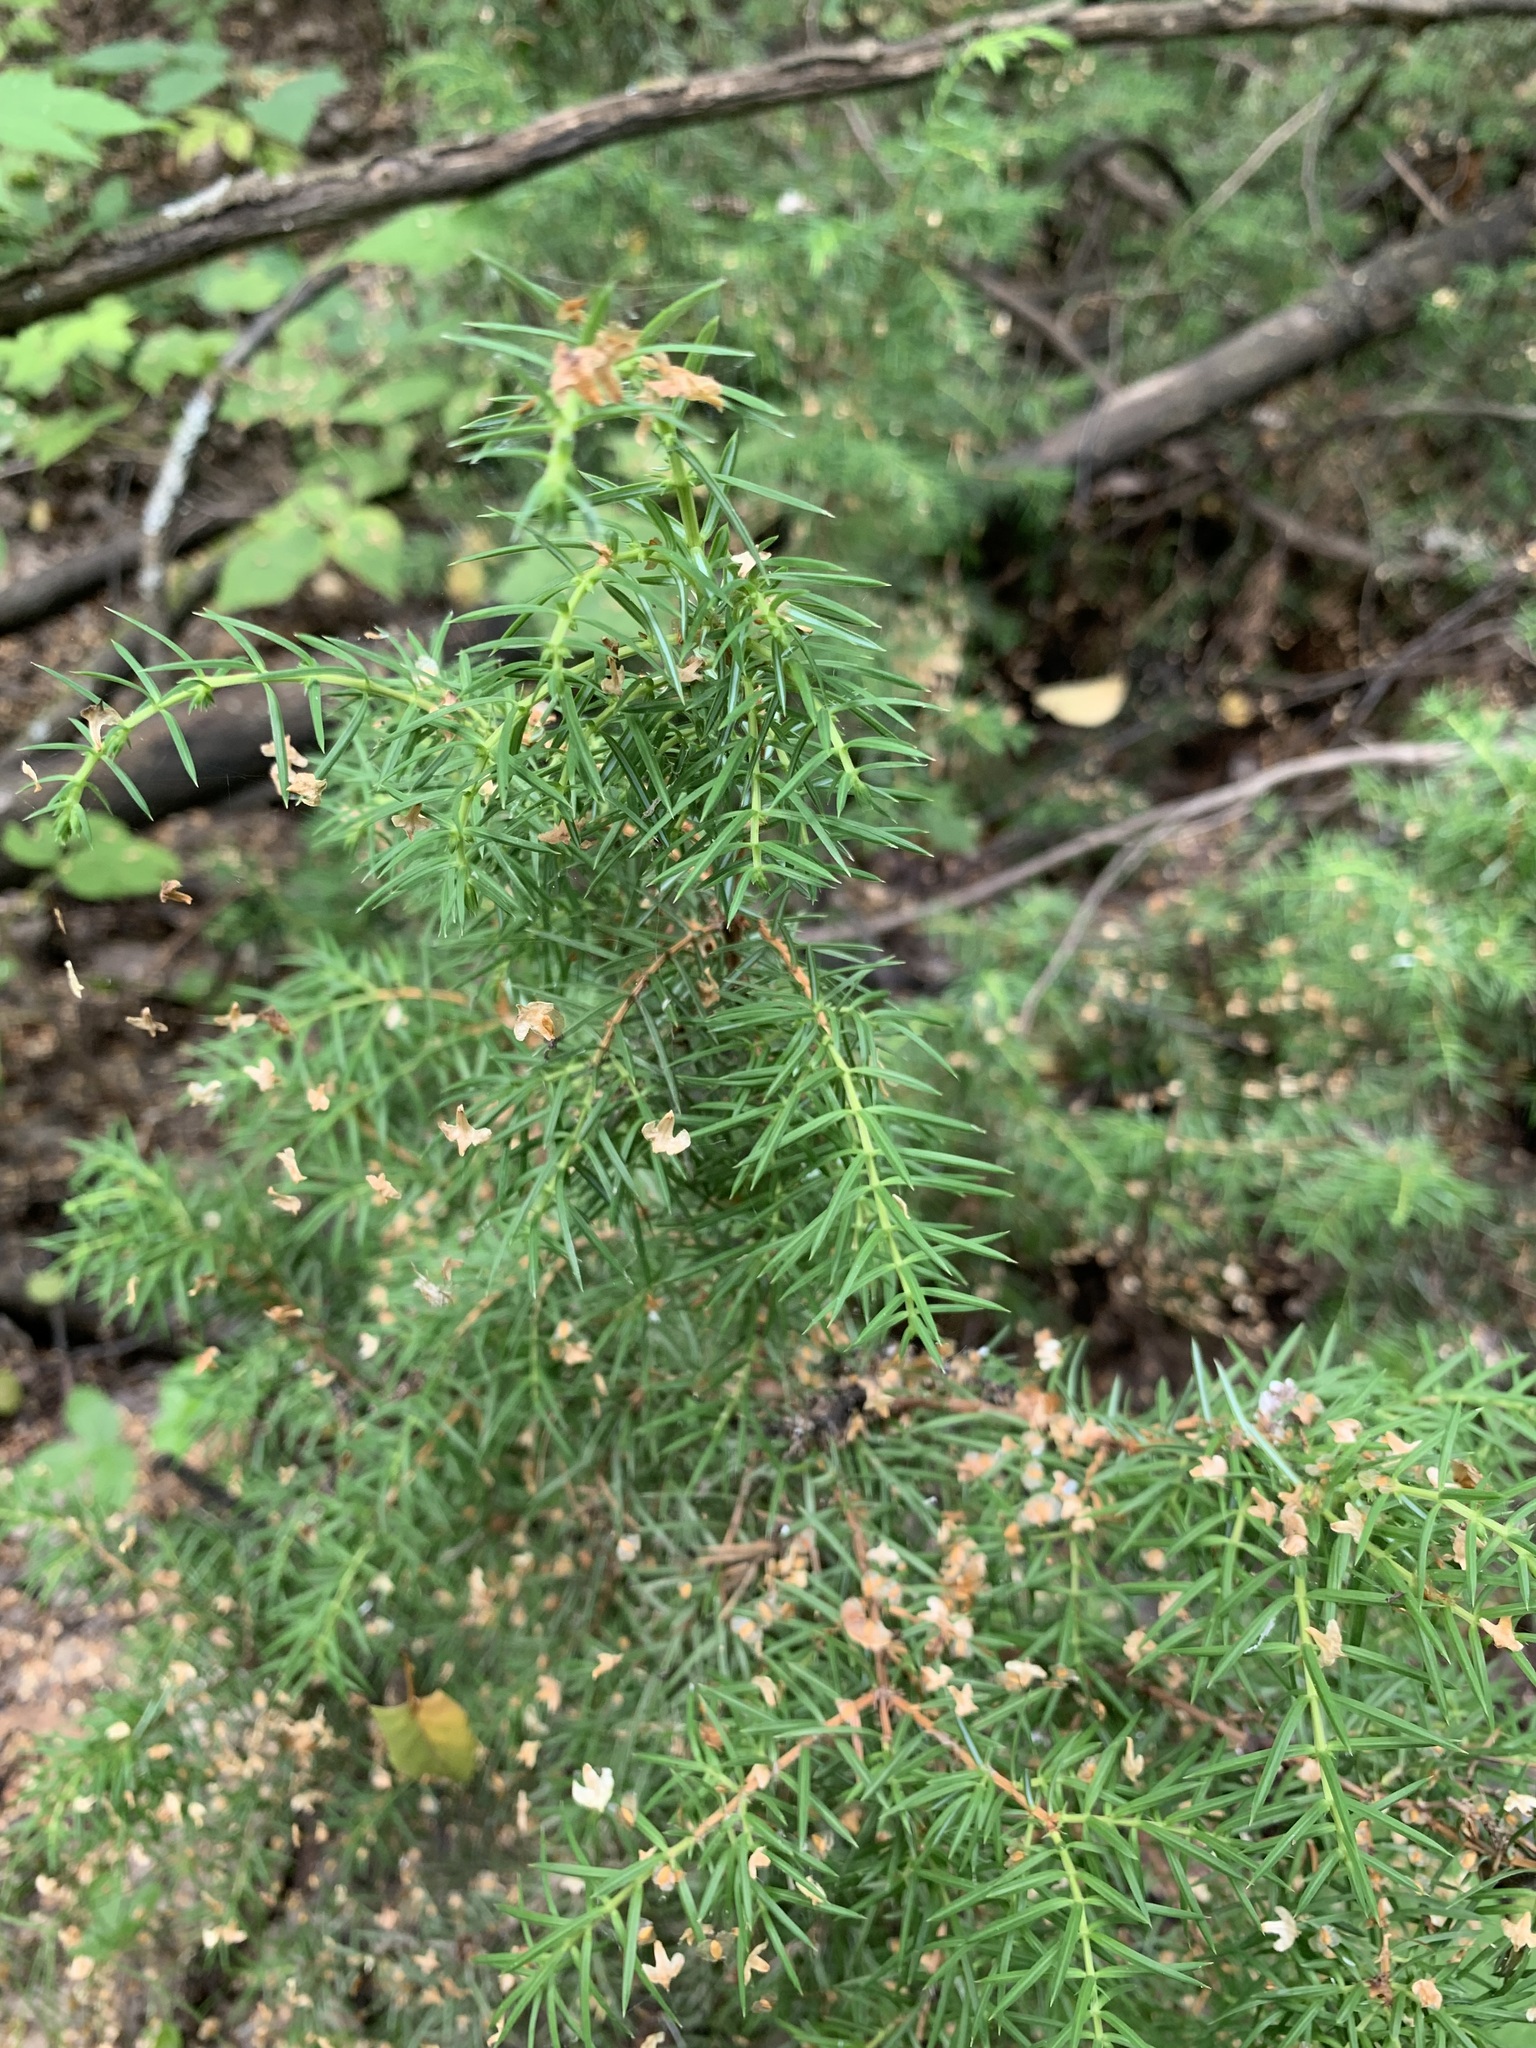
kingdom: Plantae
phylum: Tracheophyta
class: Pinopsida
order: Pinales
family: Cupressaceae
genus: Juniperus
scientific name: Juniperus communis
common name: Common juniper
